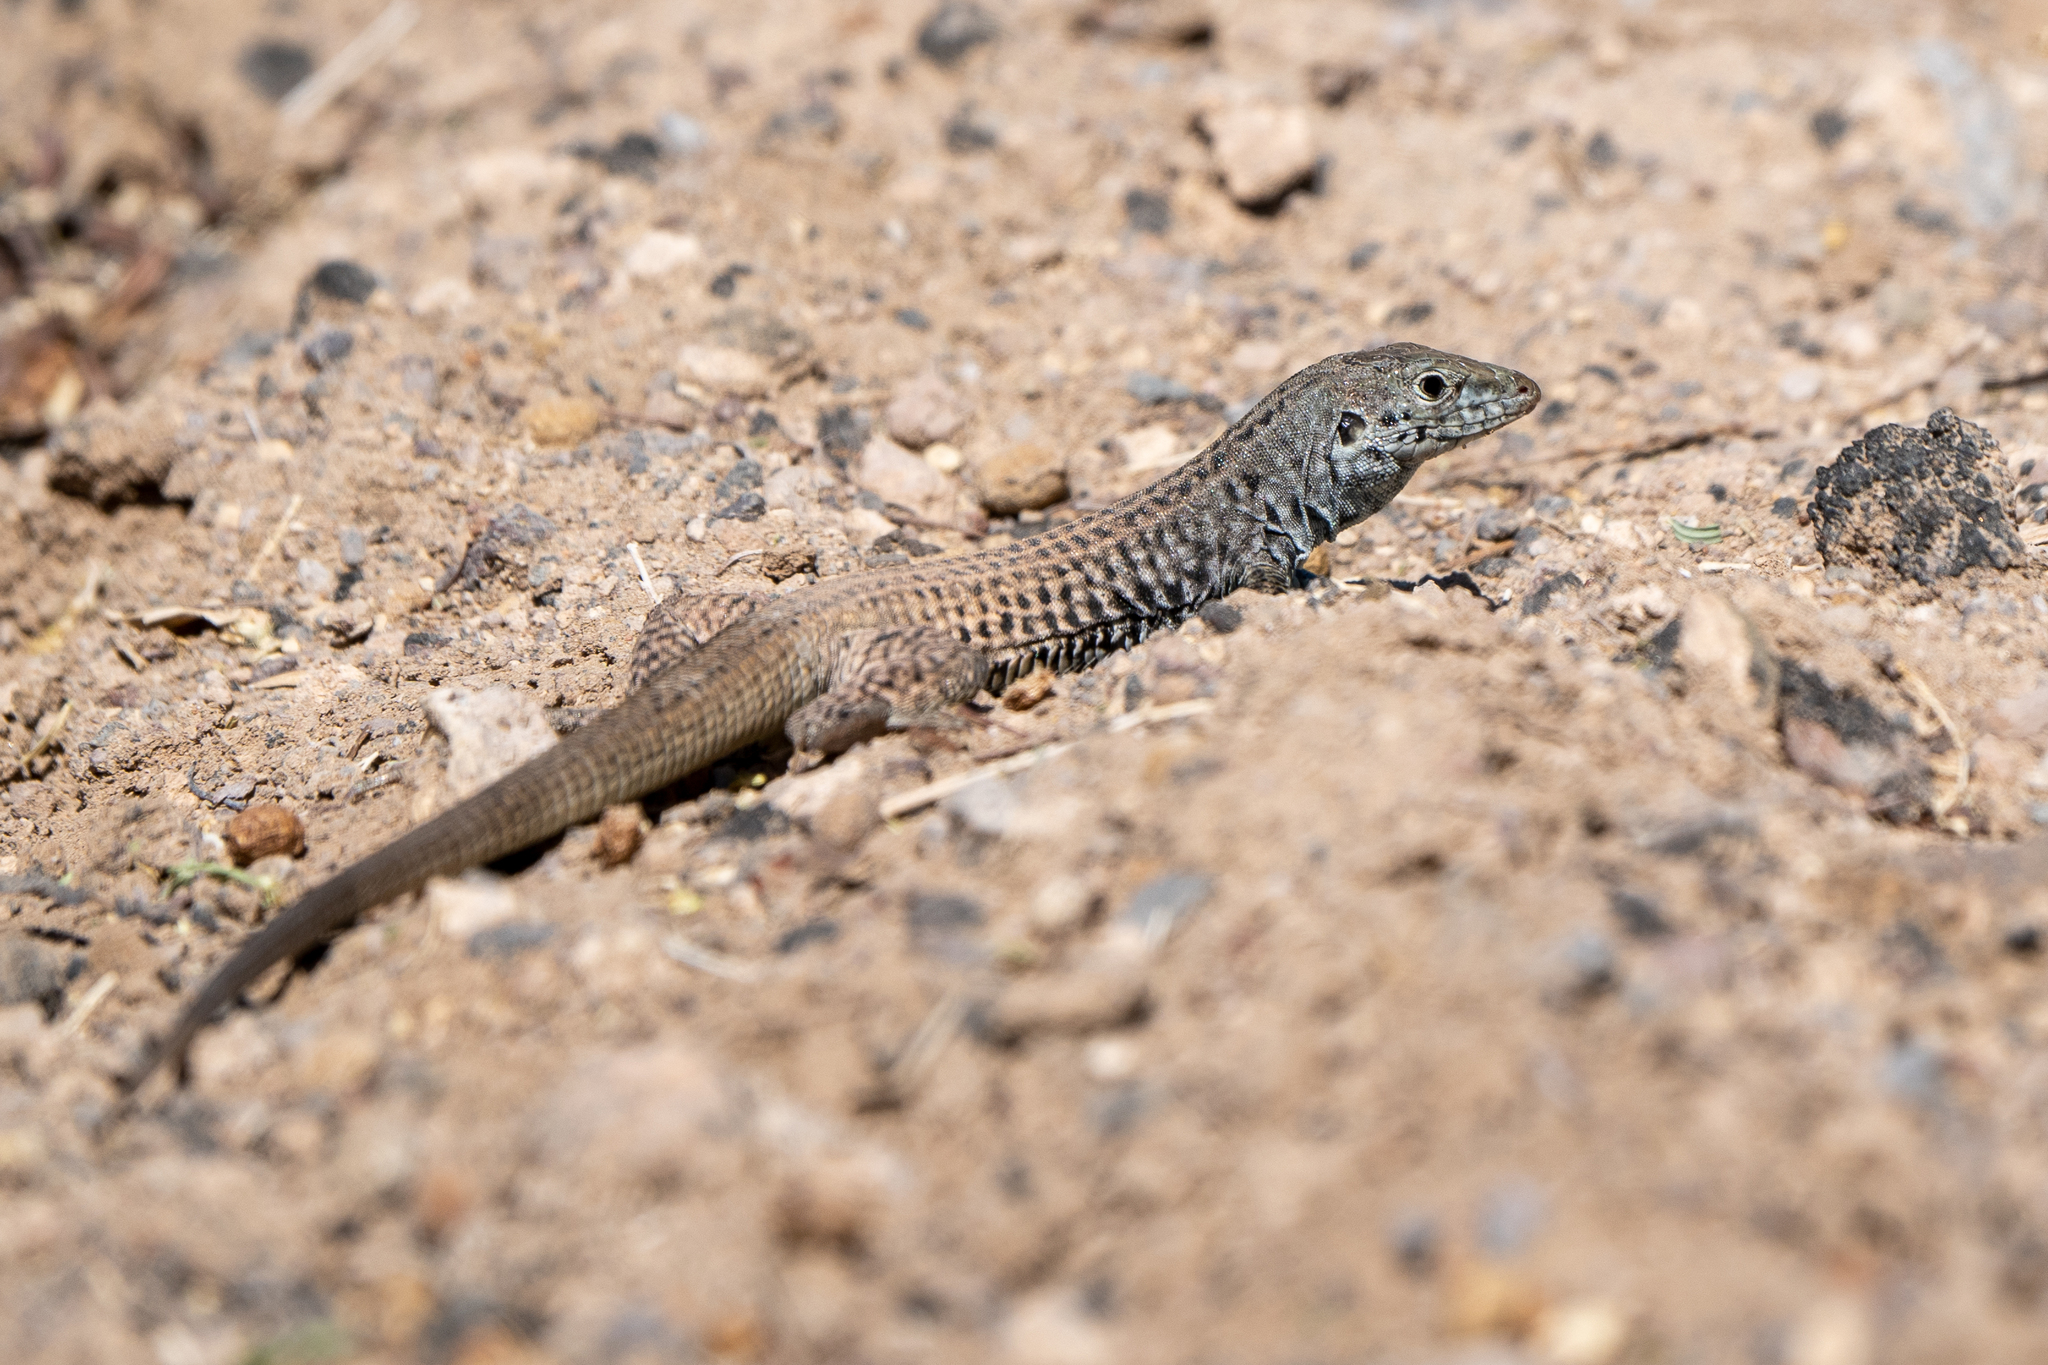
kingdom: Animalia
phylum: Chordata
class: Squamata
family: Teiidae
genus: Aspidoscelis
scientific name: Aspidoscelis tigris
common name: Tiger whiptail
